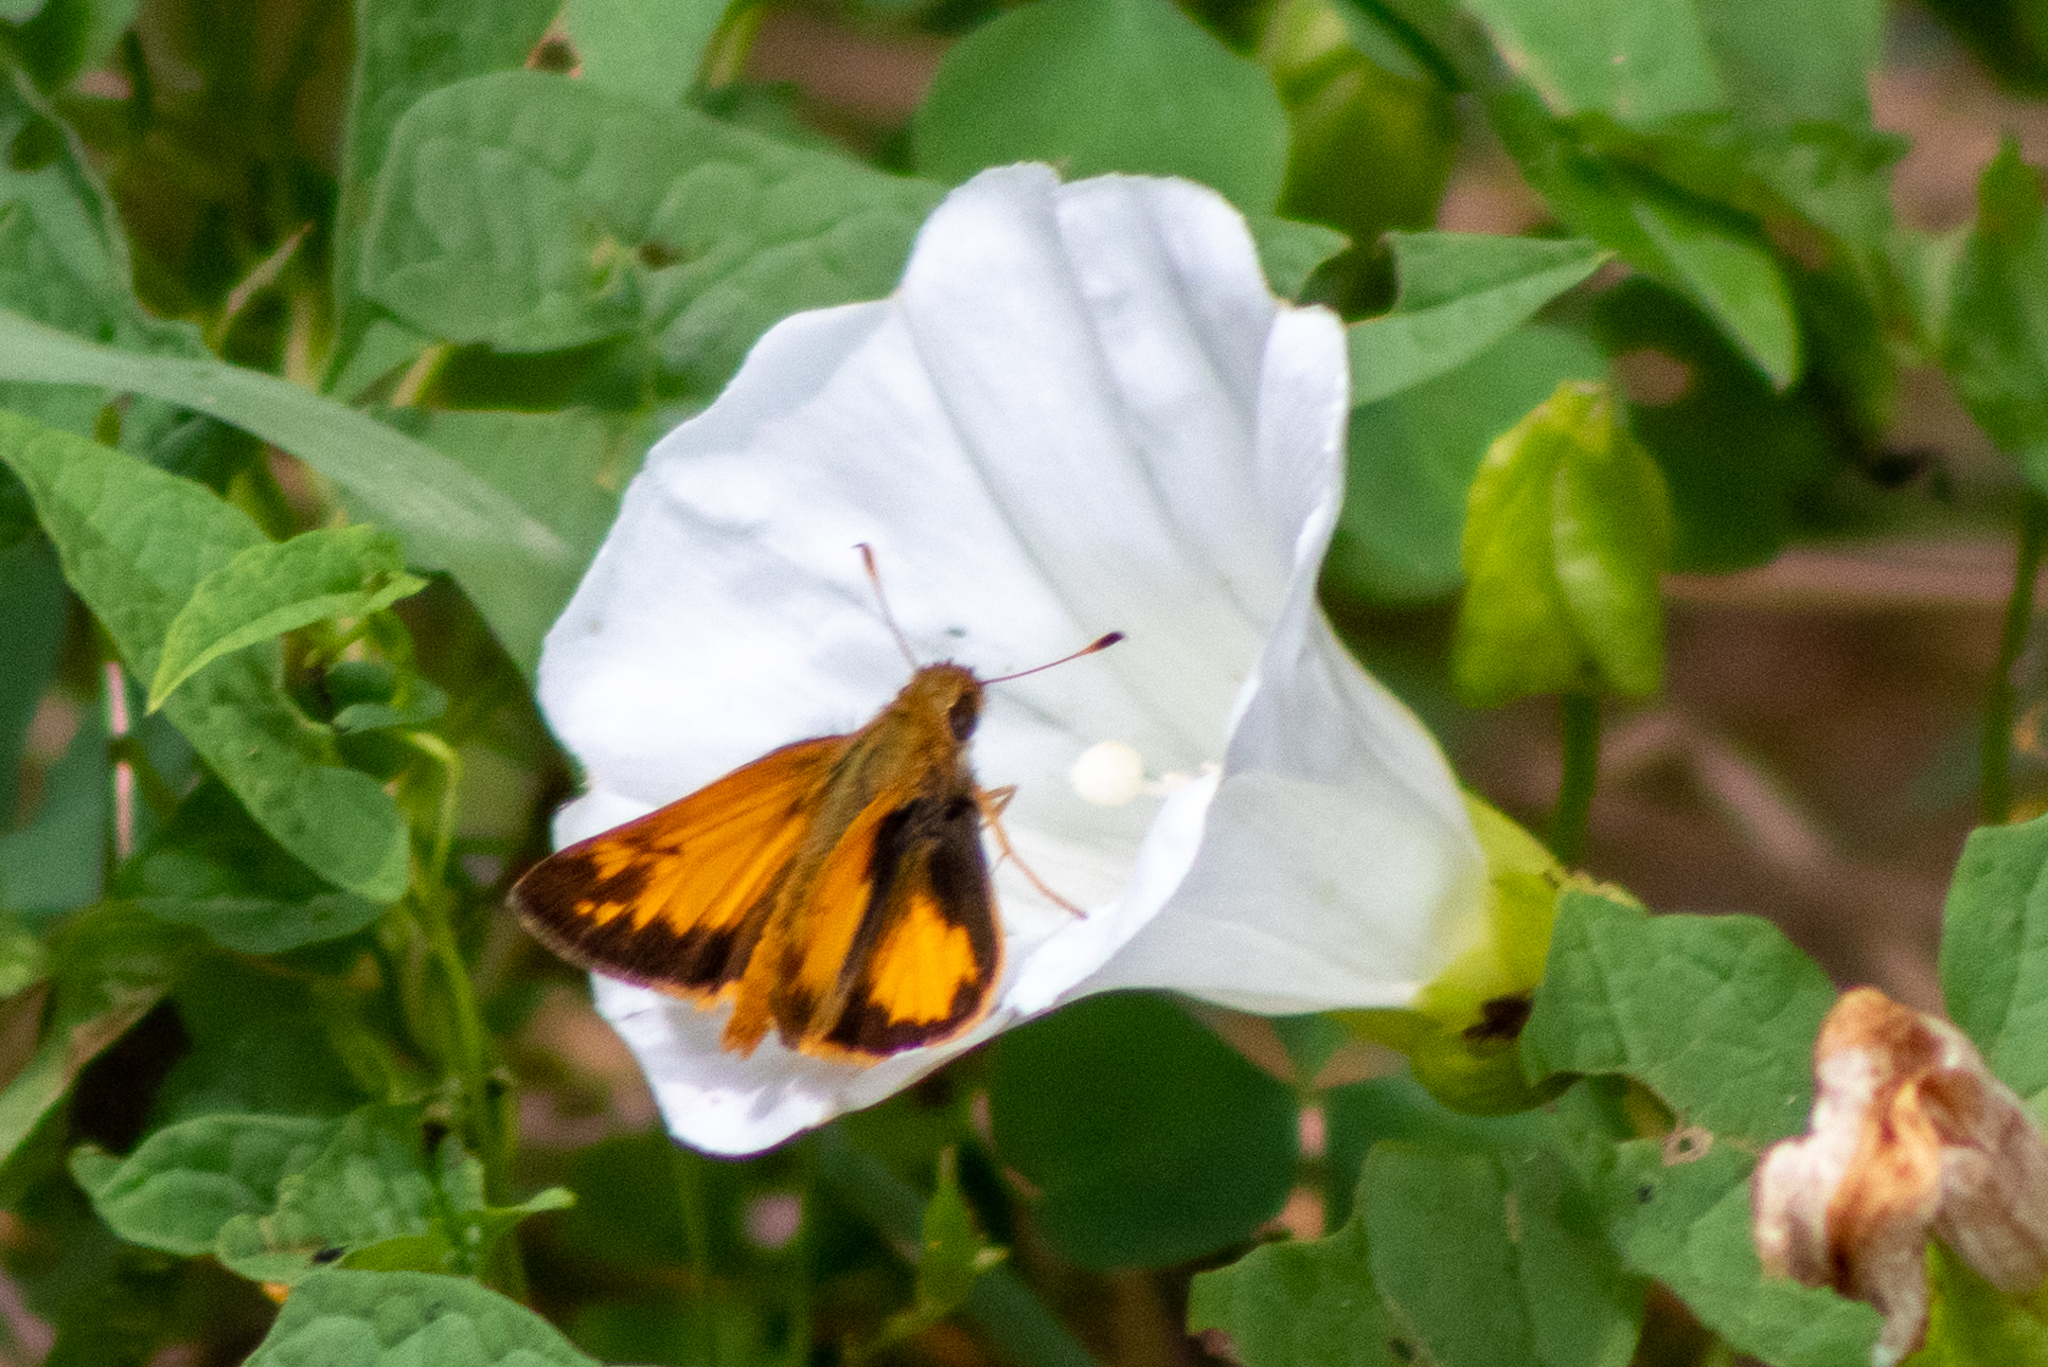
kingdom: Animalia
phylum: Arthropoda
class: Insecta
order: Lepidoptera
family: Hesperiidae
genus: Lon
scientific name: Lon zabulon
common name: Zabulon skipper
